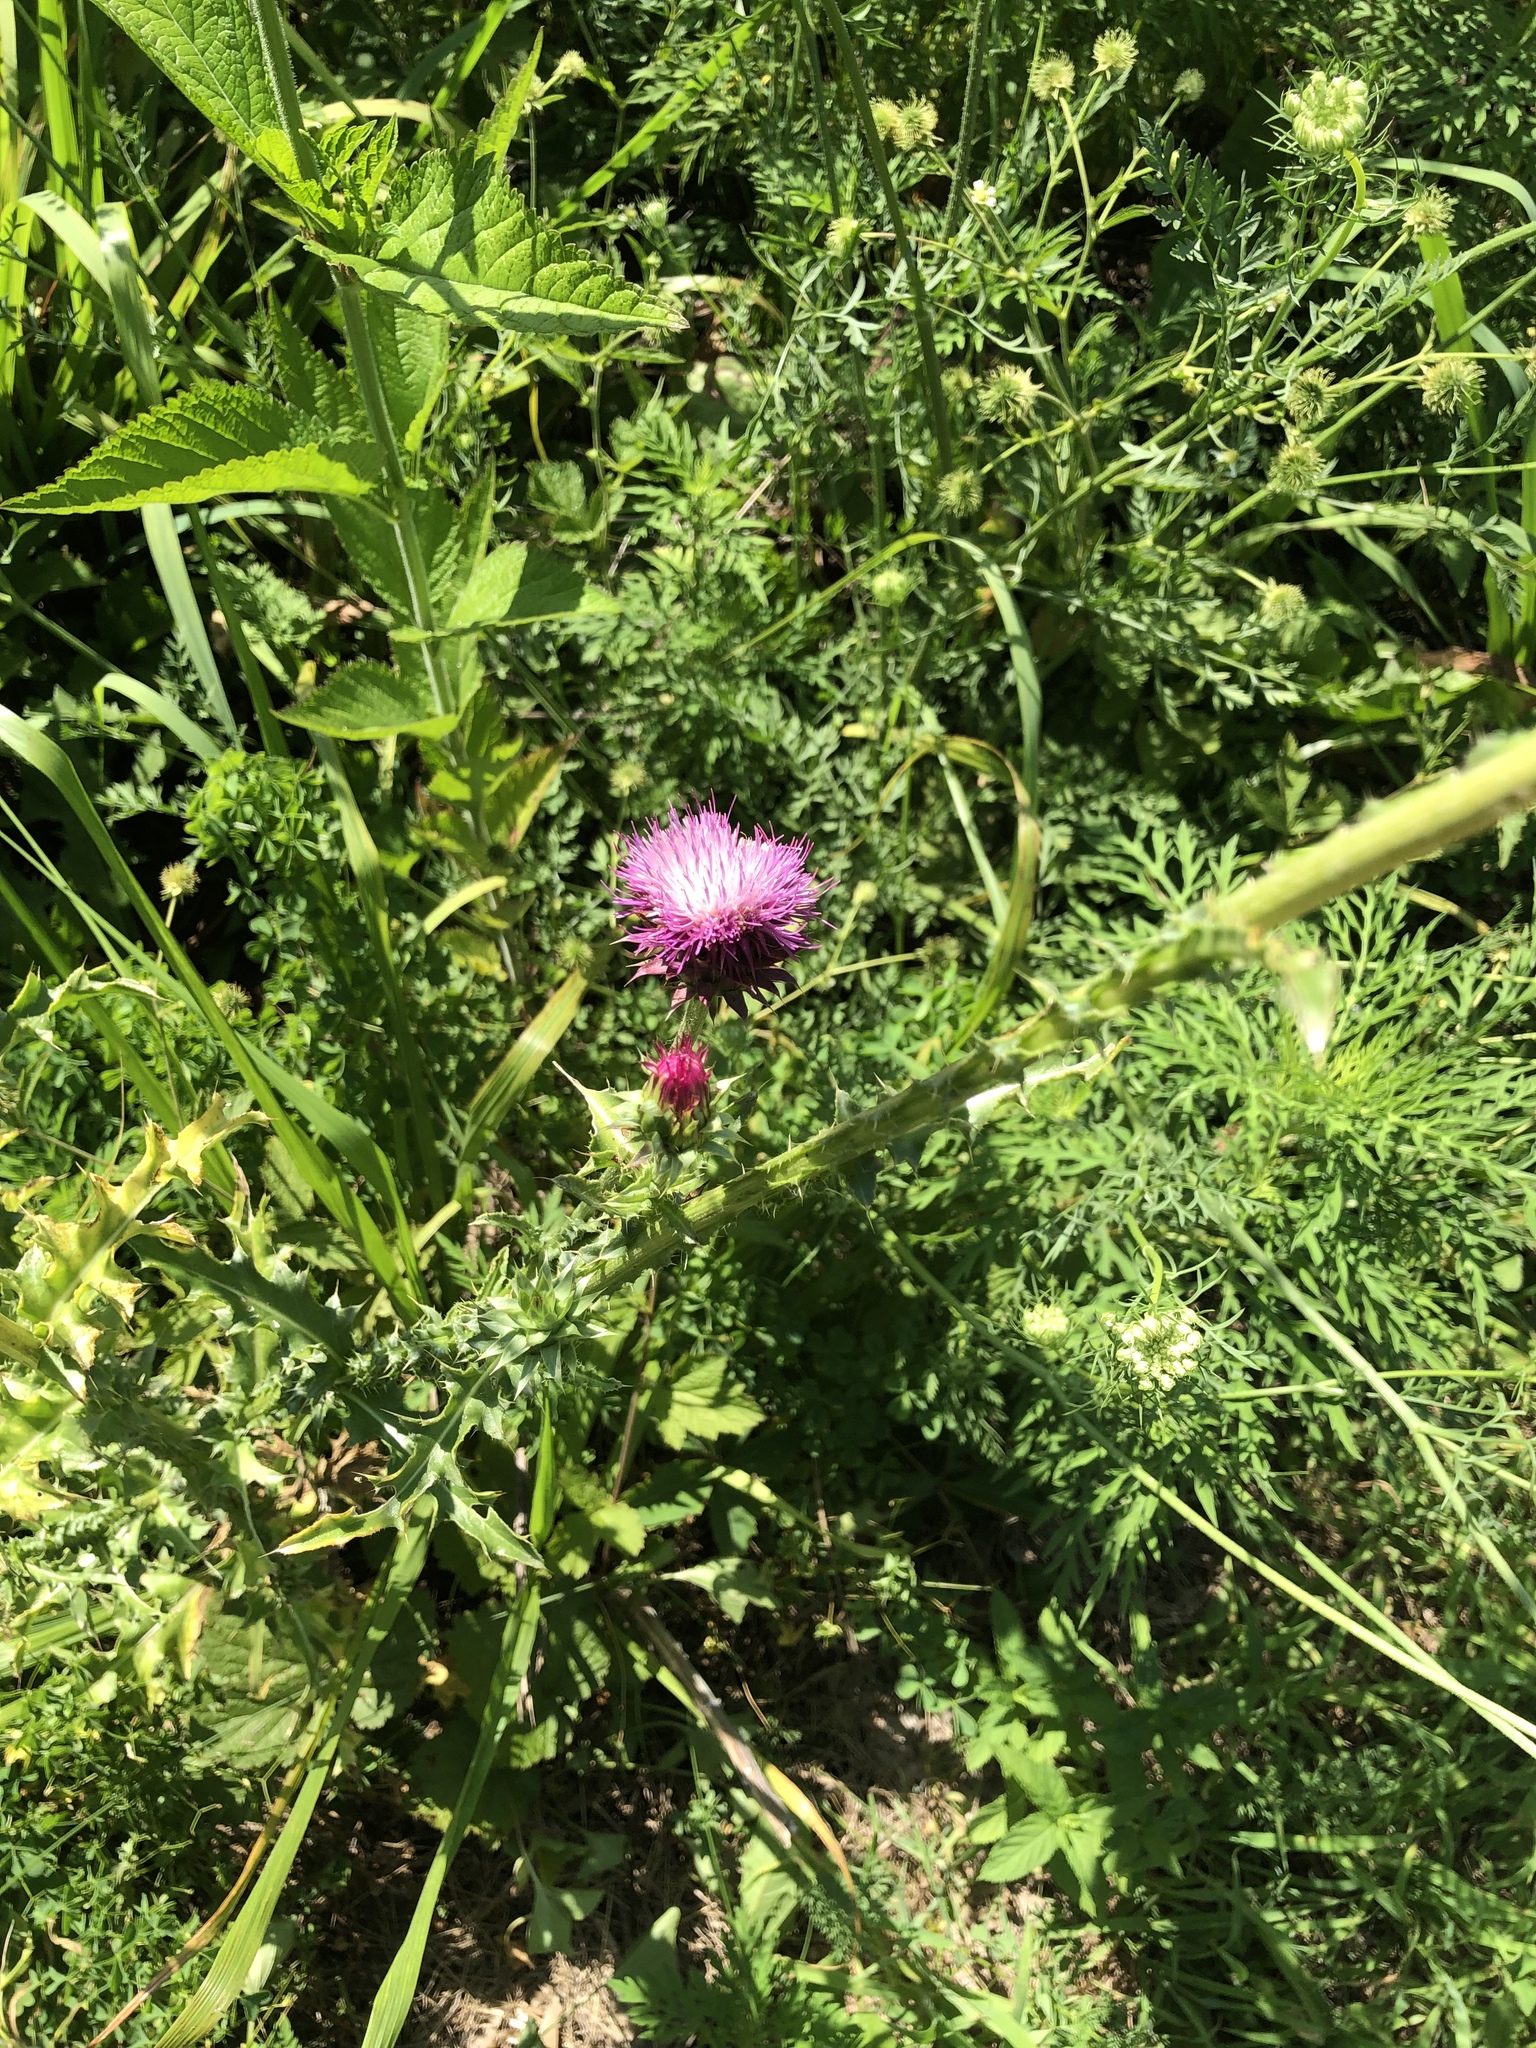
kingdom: Plantae
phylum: Tracheophyta
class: Magnoliopsida
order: Asterales
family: Asteraceae
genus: Carduus
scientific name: Carduus nutans
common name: Musk thistle
